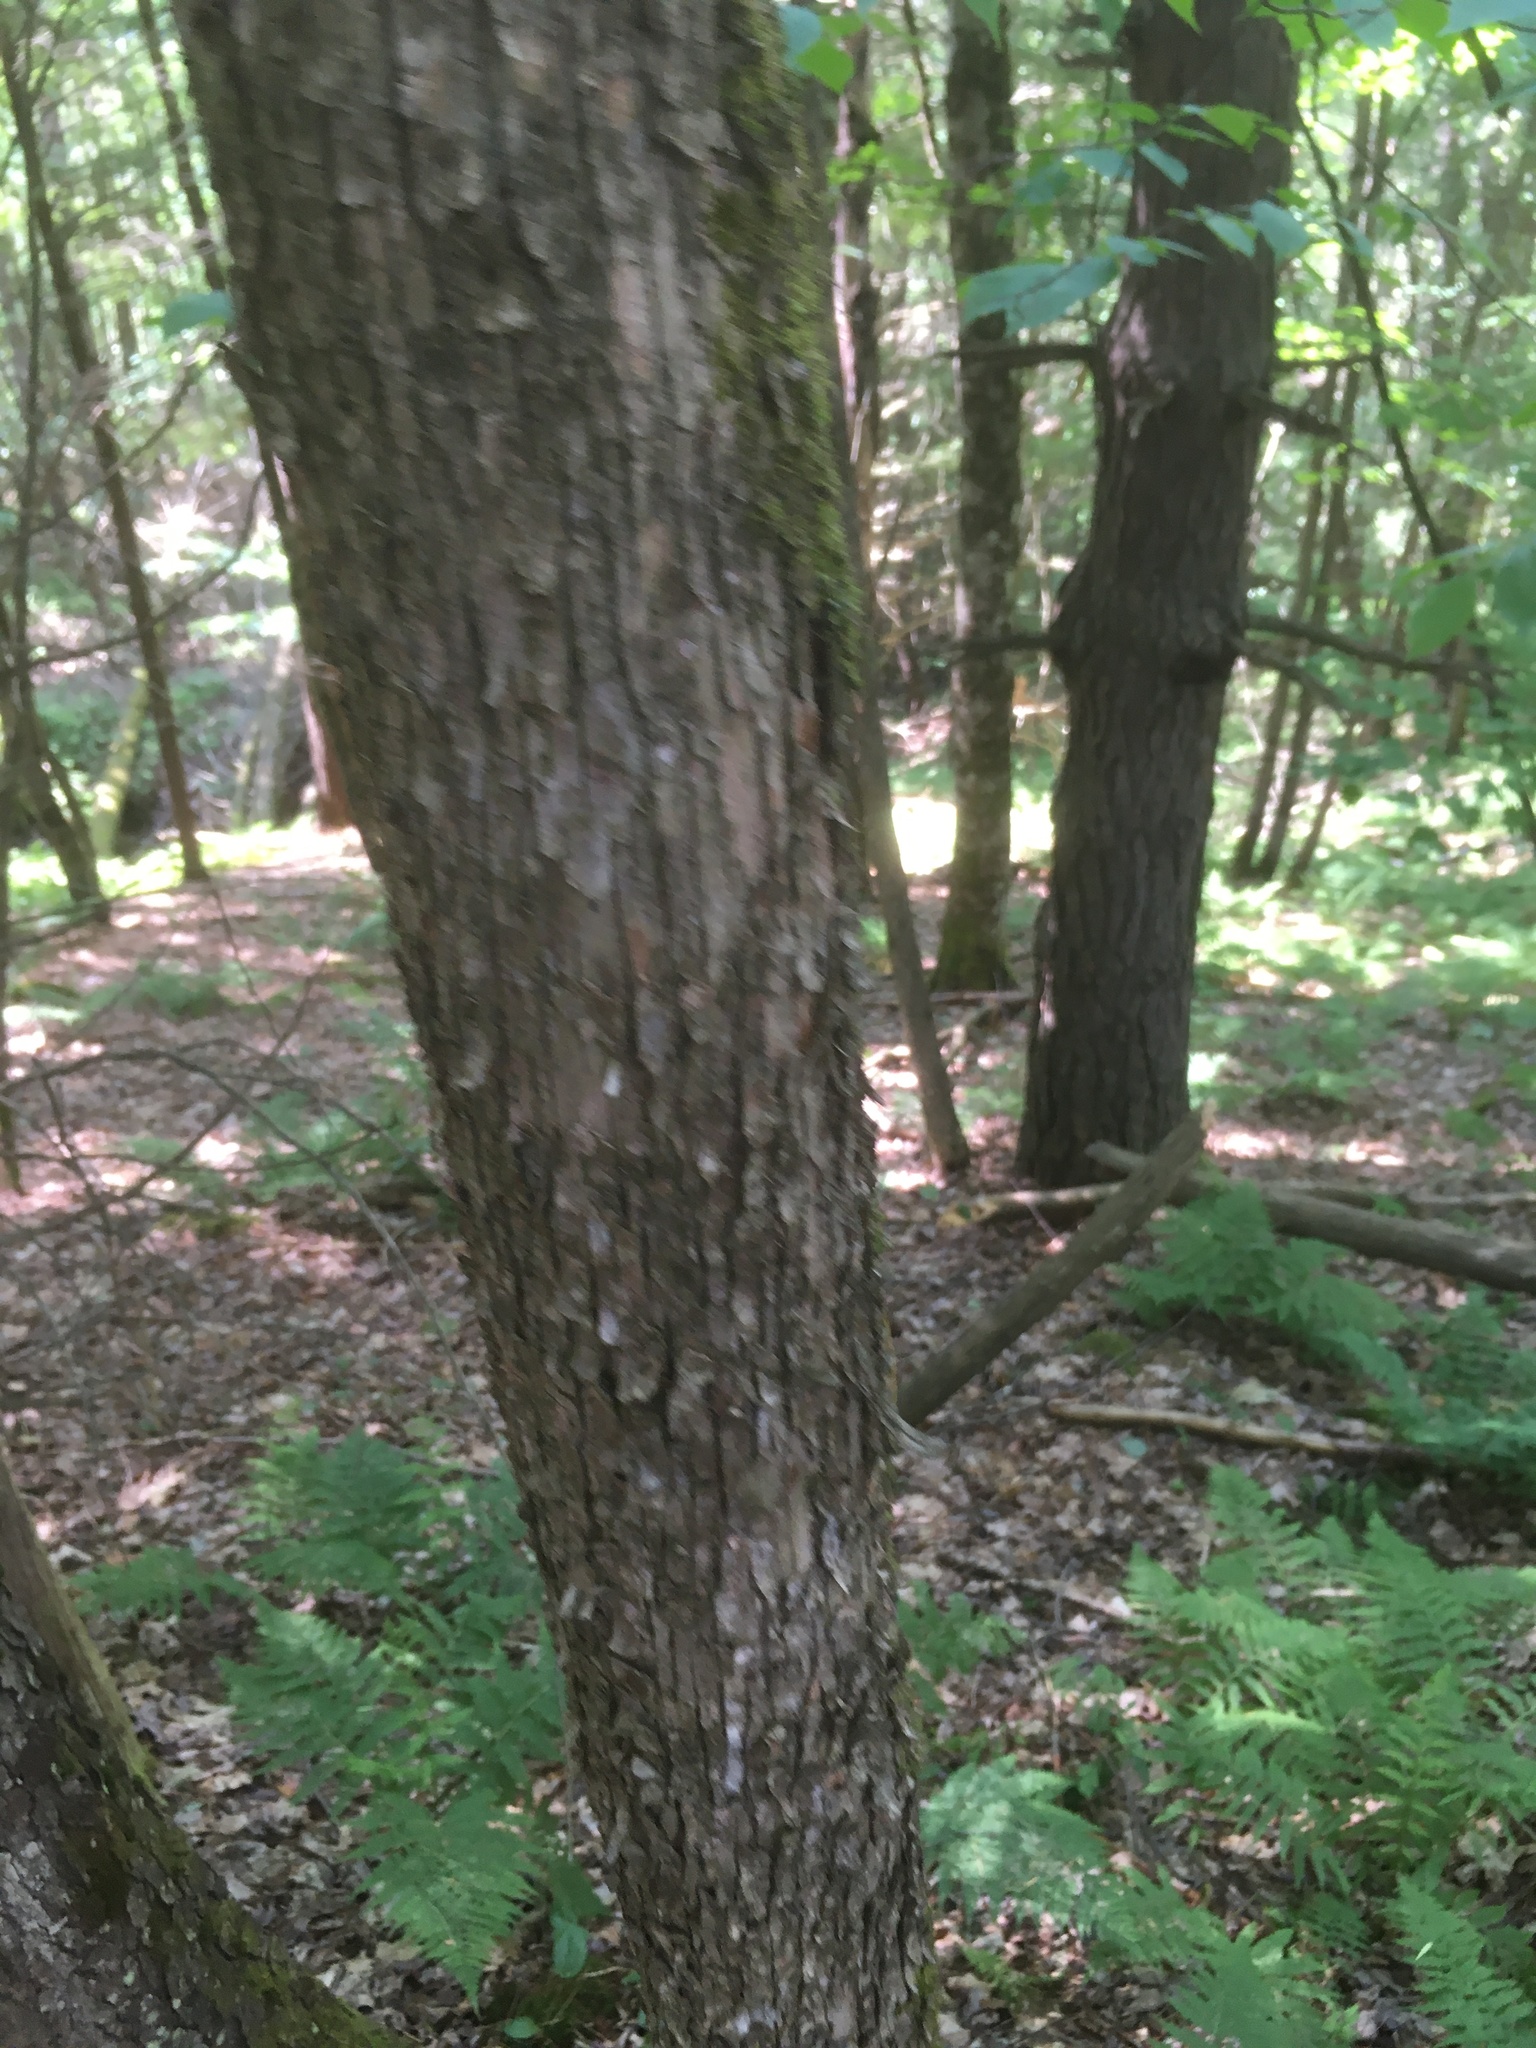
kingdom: Plantae
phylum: Tracheophyta
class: Magnoliopsida
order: Fagales
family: Betulaceae
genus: Ostrya
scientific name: Ostrya virginiana
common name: Ironwood
